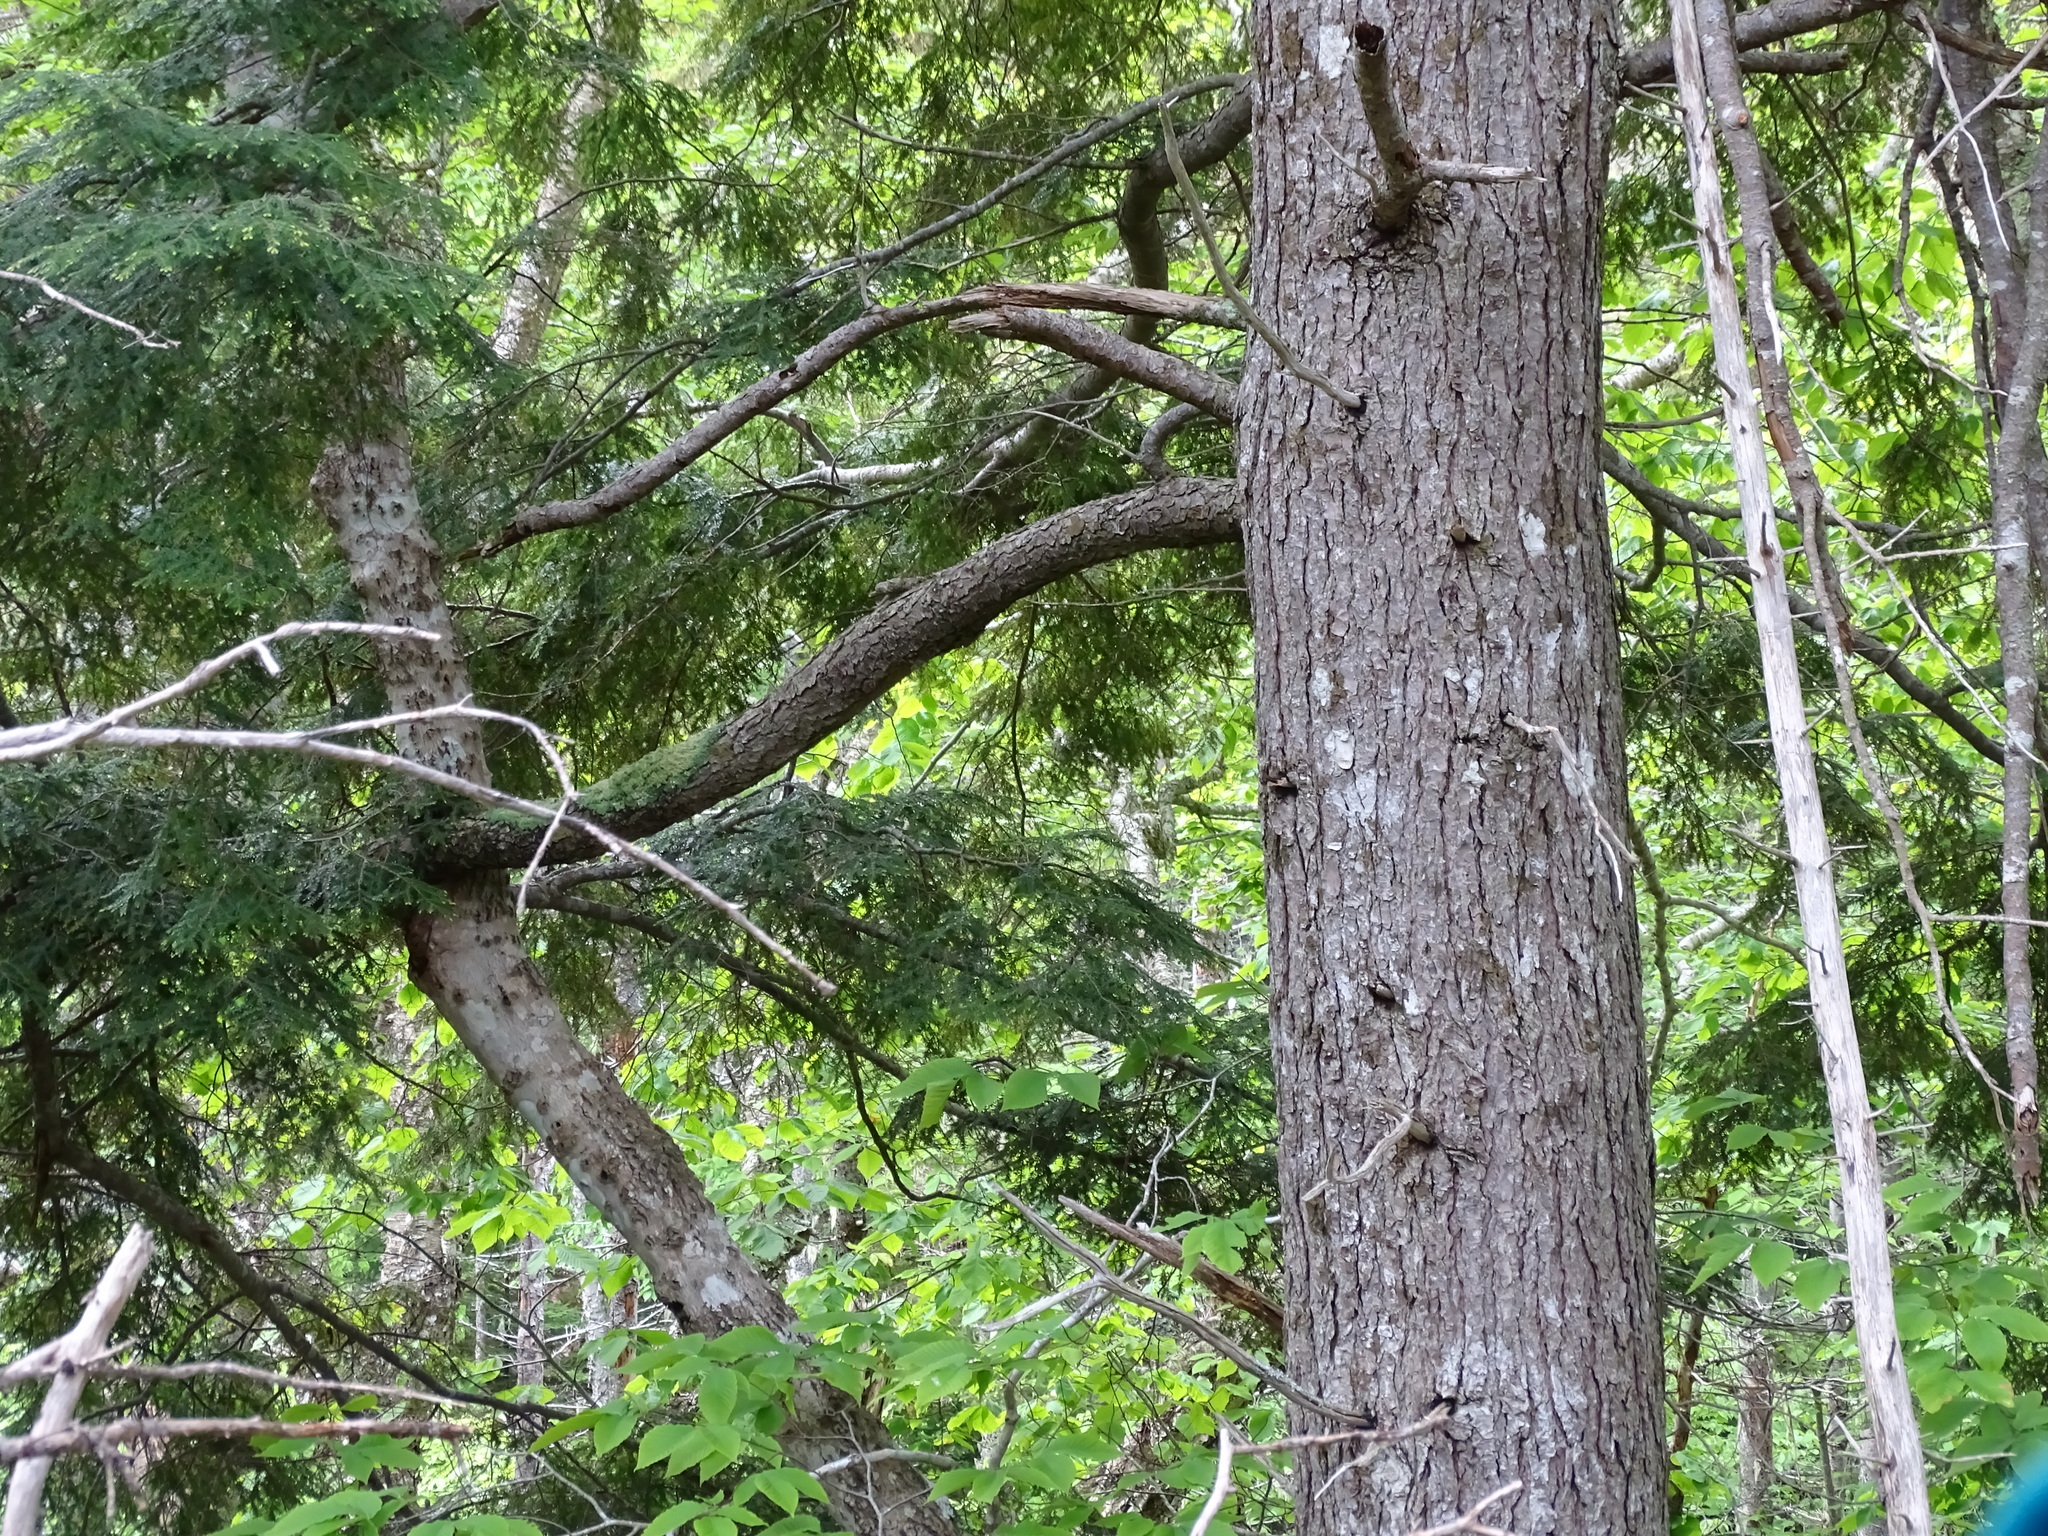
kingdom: Plantae
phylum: Tracheophyta
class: Pinopsida
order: Pinales
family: Pinaceae
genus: Tsuga
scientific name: Tsuga canadensis
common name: Eastern hemlock
